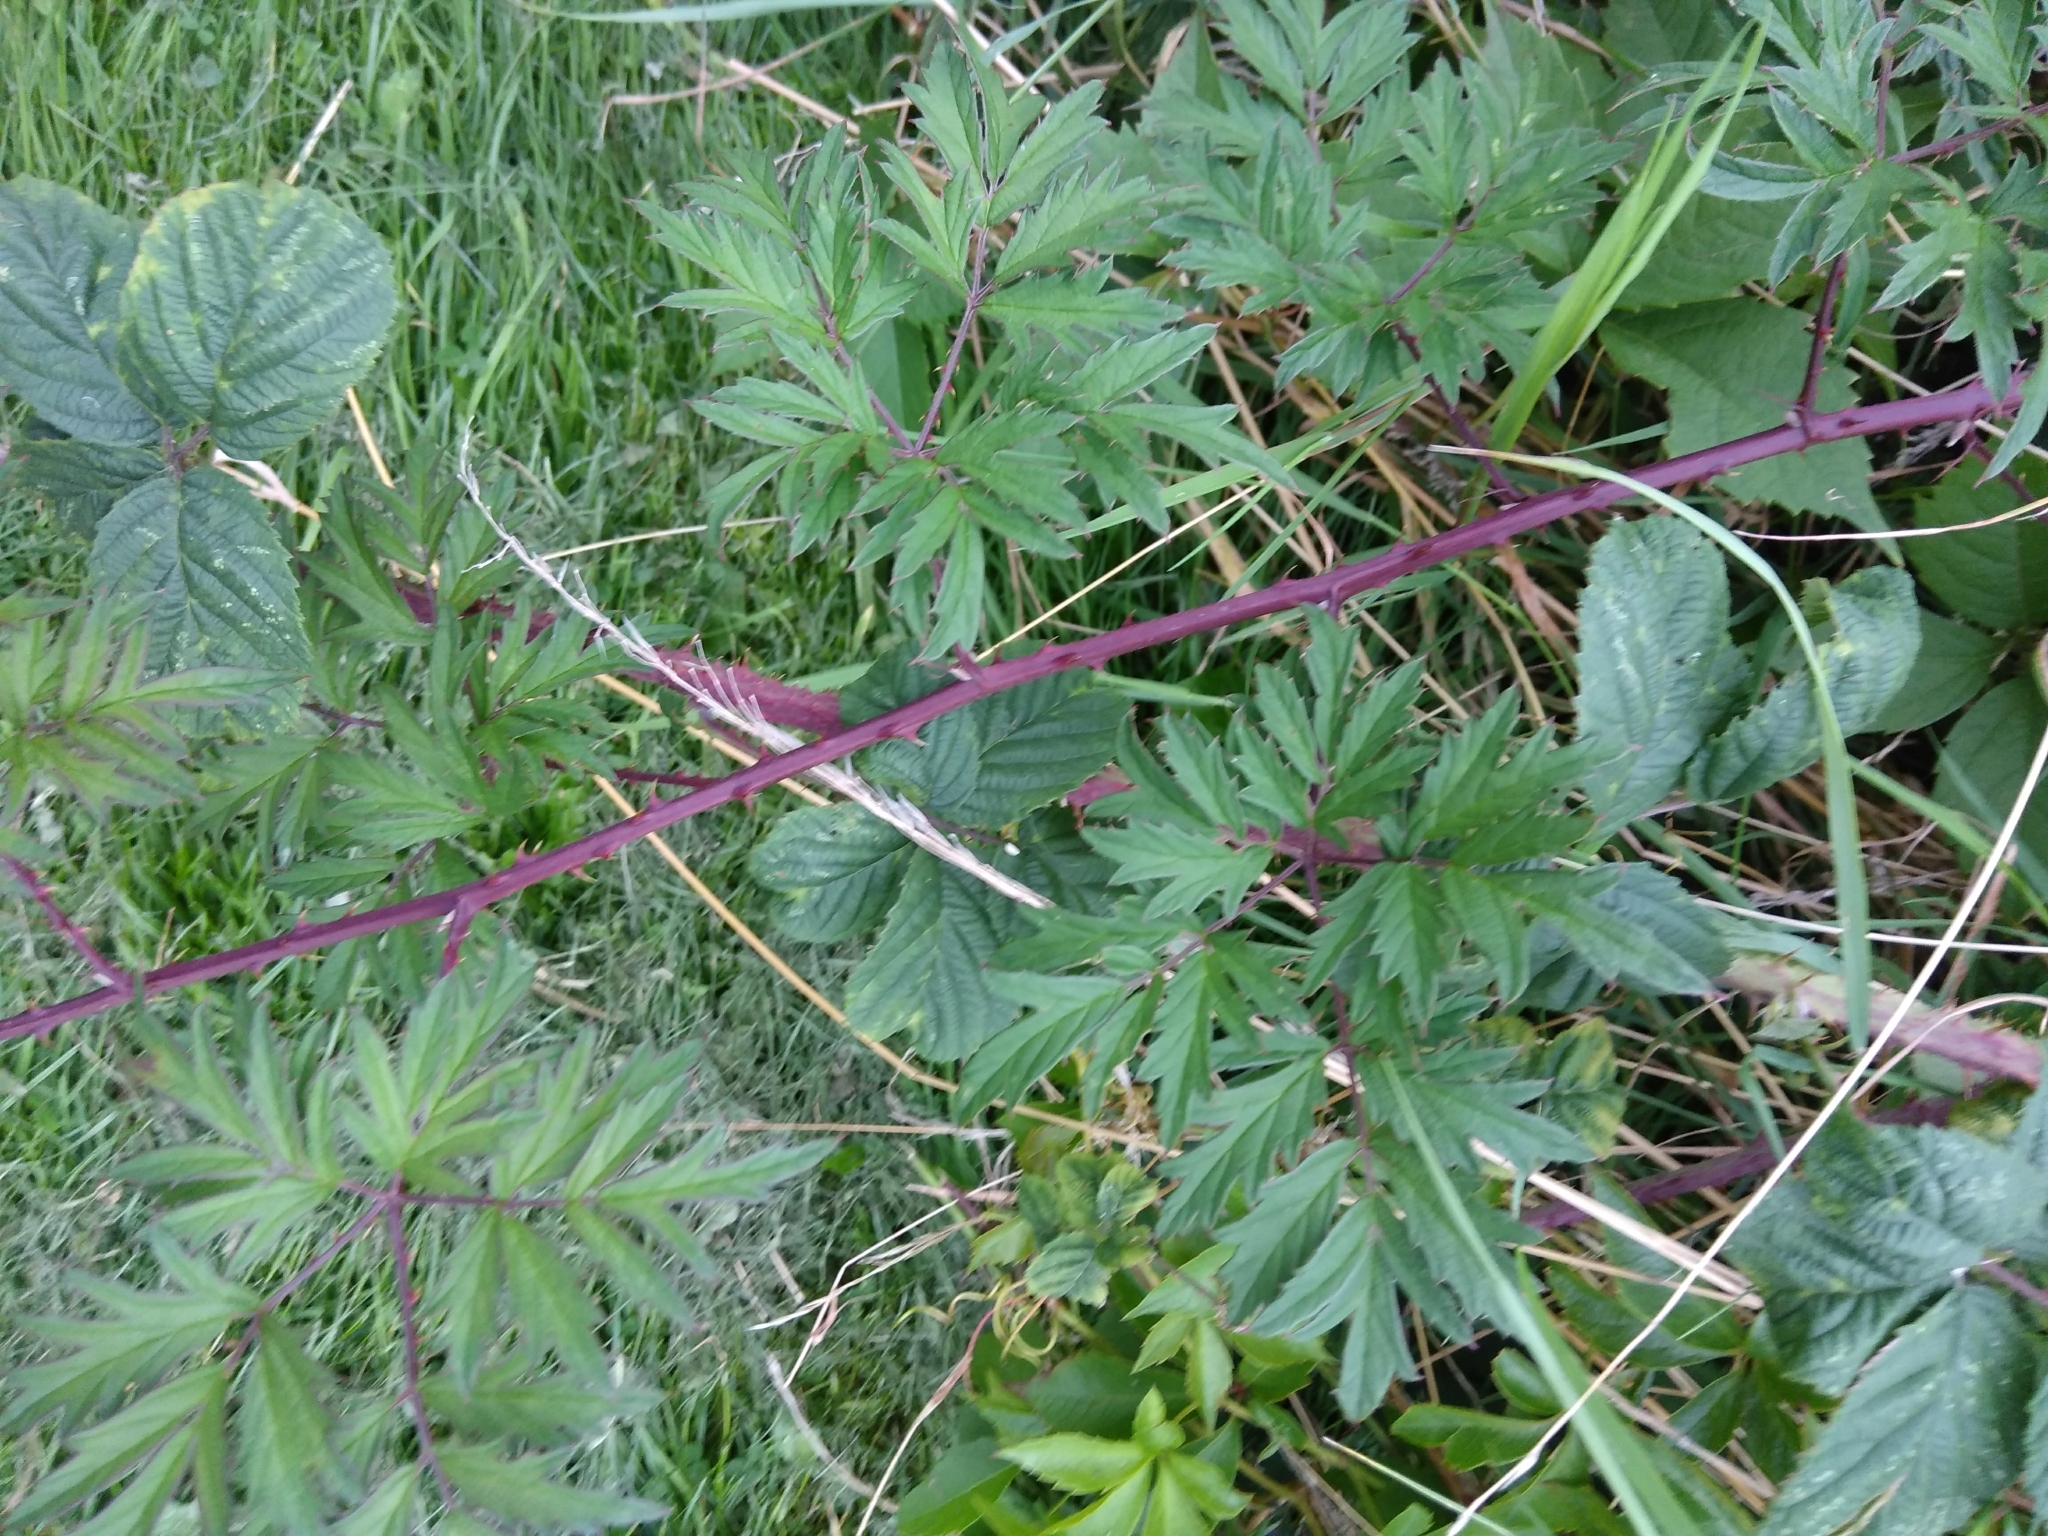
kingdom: Plantae
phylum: Tracheophyta
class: Magnoliopsida
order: Rosales
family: Rosaceae
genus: Rubus
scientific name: Rubus laciniatus
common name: Evergreen blackberry
